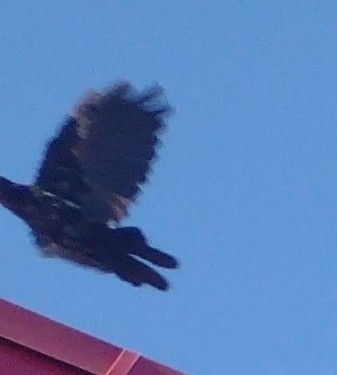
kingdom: Animalia
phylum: Chordata
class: Aves
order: Passeriformes
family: Corvidae
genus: Corvus
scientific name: Corvus brachyrhynchos
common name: American crow
